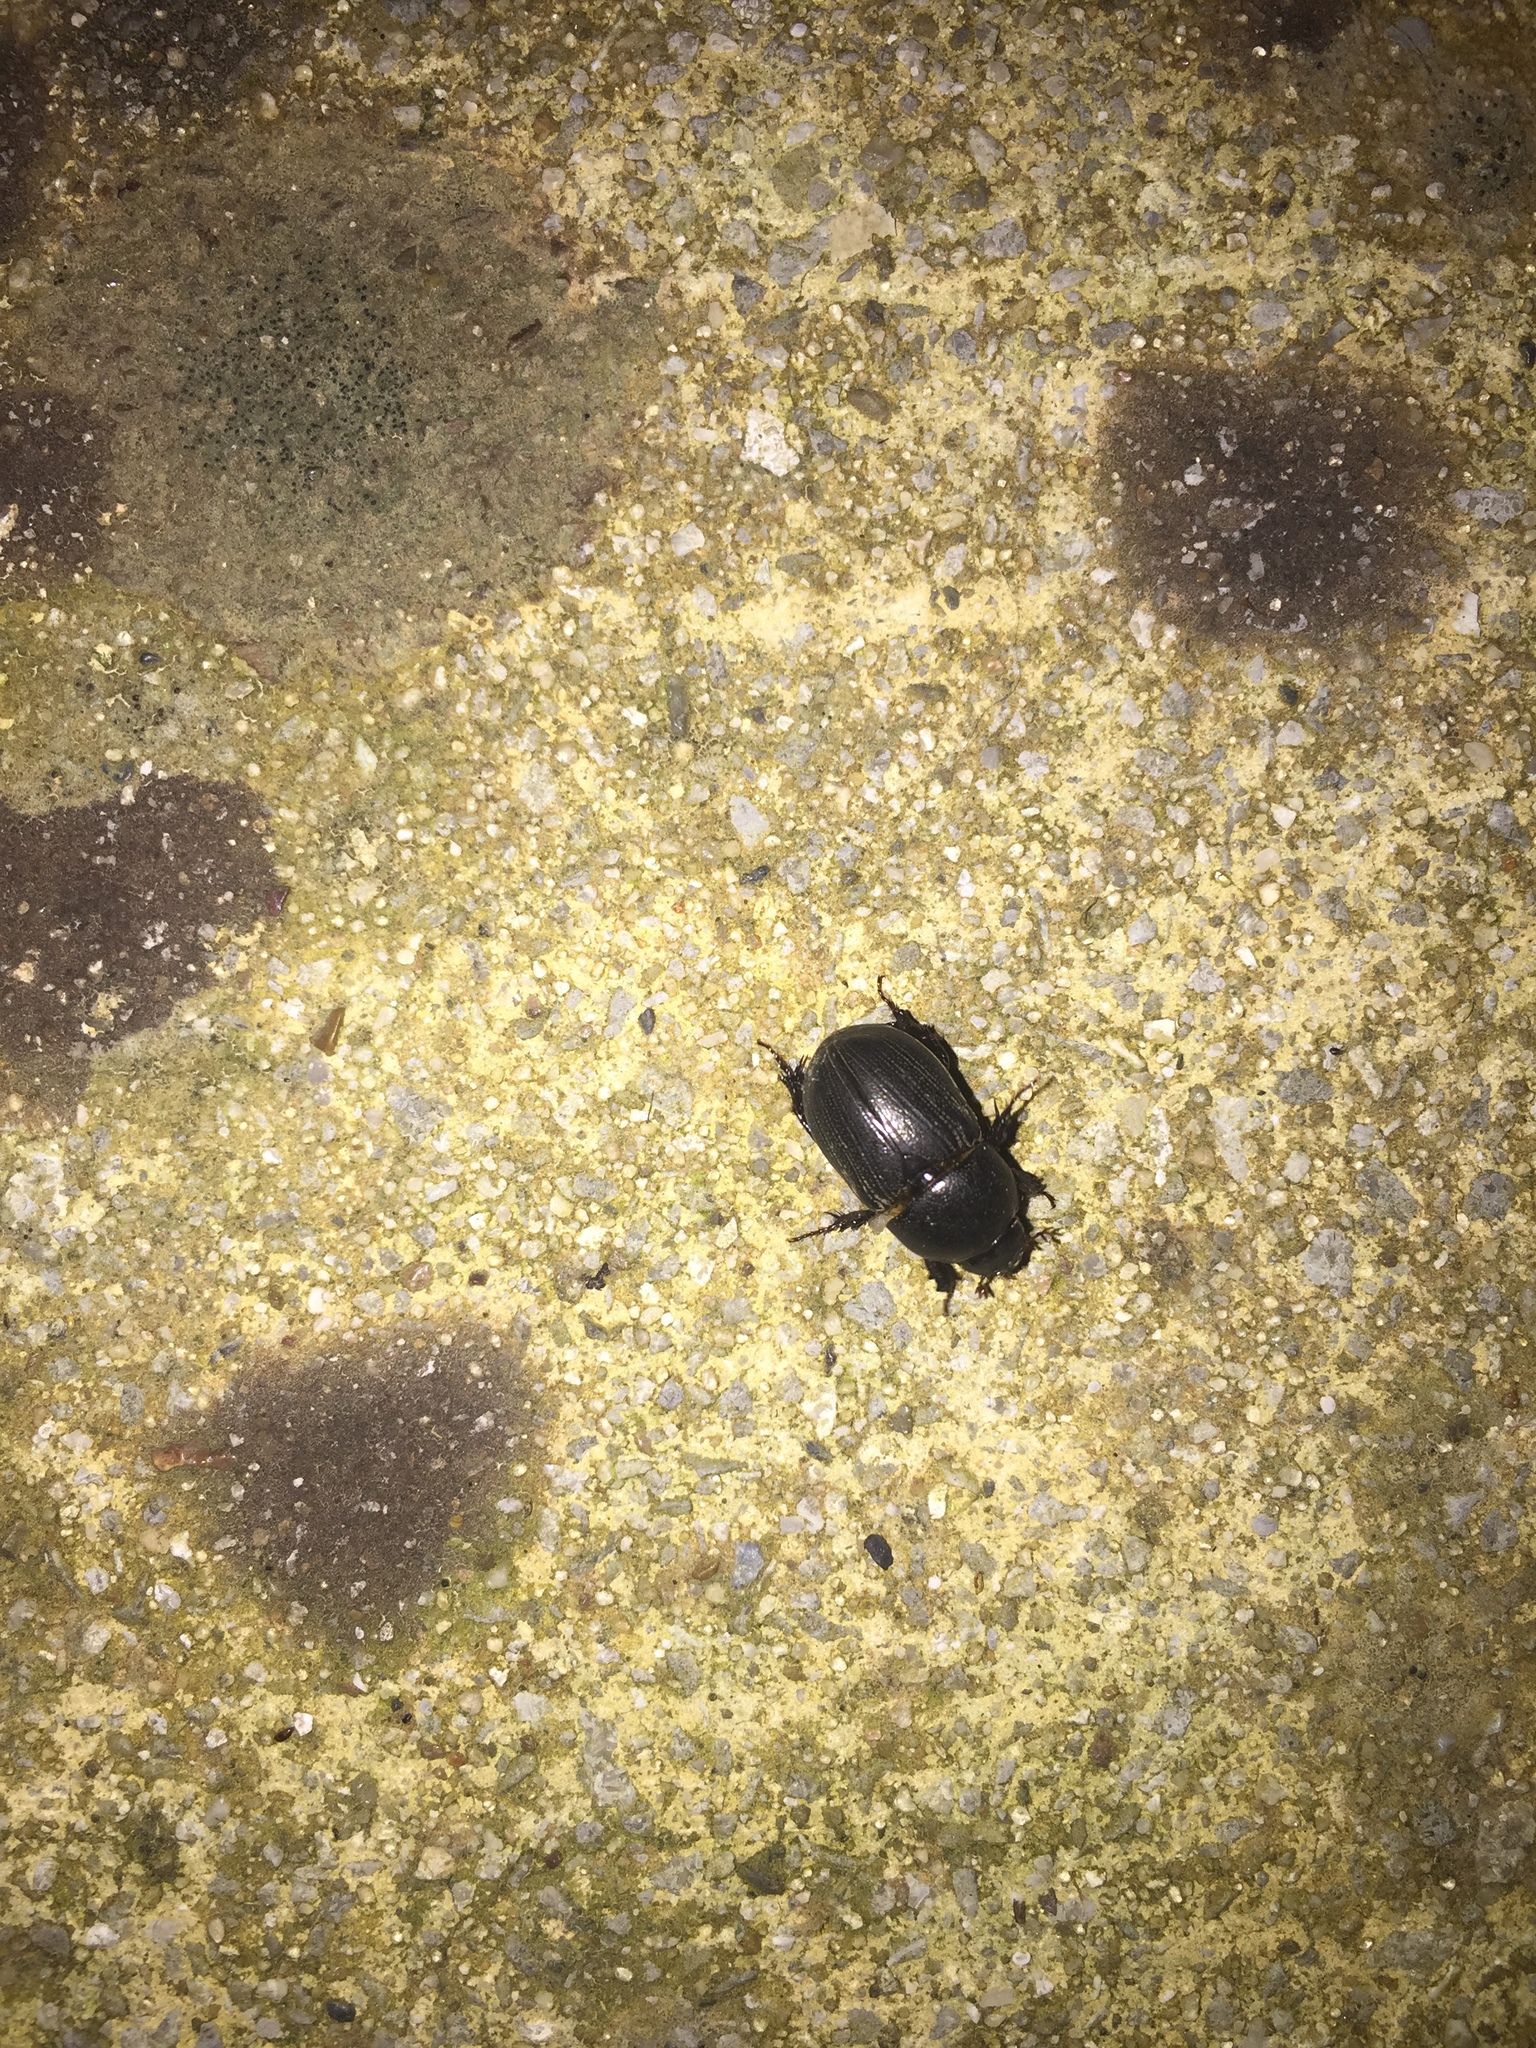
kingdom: Animalia
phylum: Arthropoda
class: Insecta
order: Coleoptera
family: Scarabaeidae
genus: Euetheola
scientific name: Euetheola humilis
